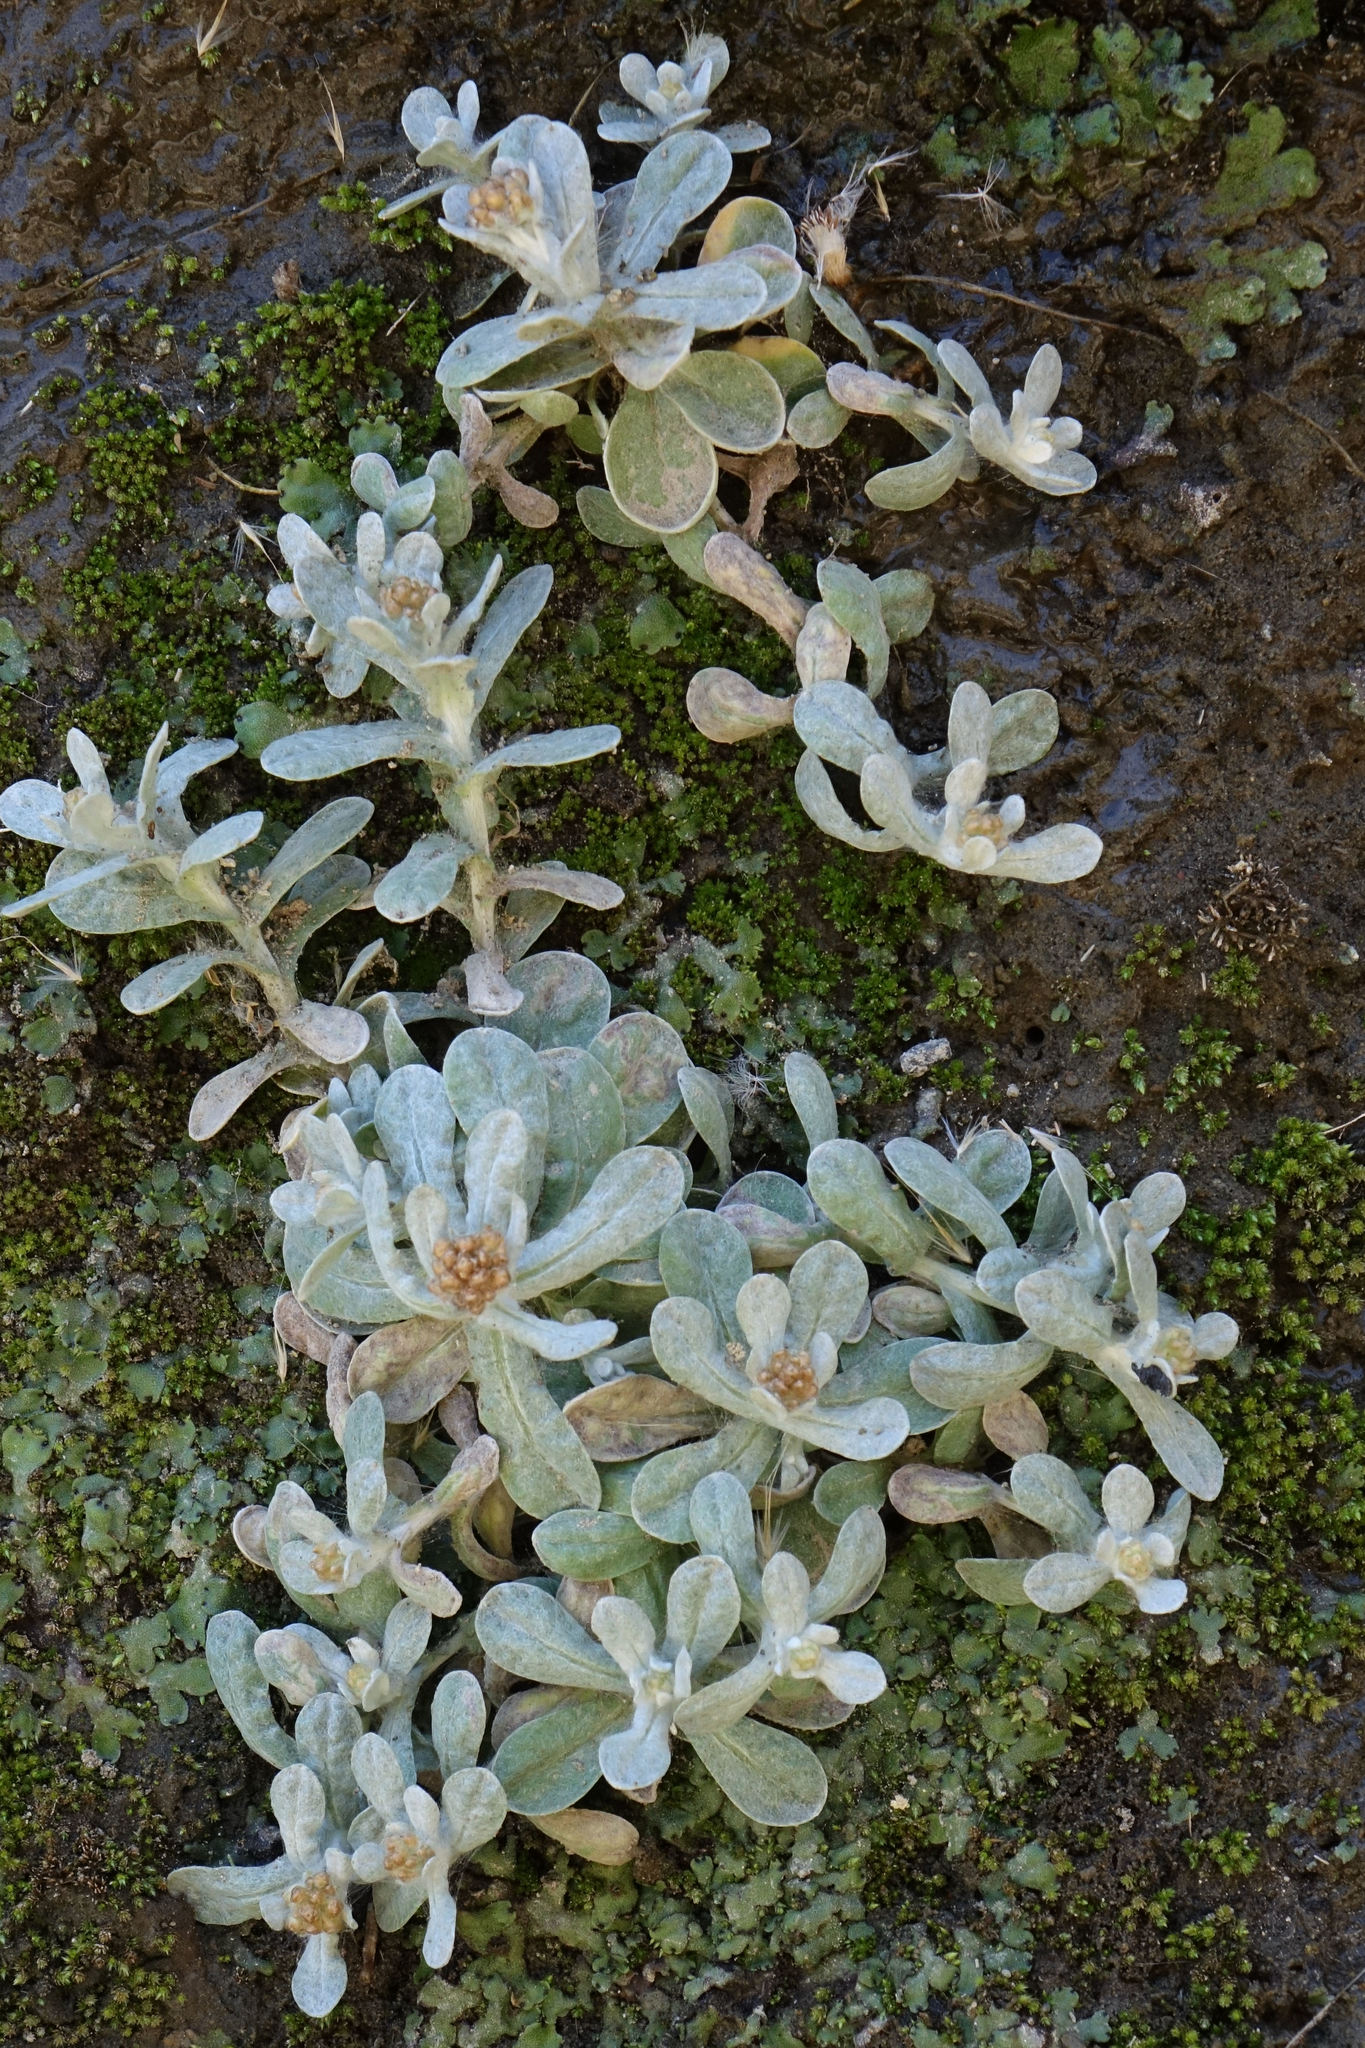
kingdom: Plantae
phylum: Tracheophyta
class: Magnoliopsida
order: Asterales
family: Asteraceae
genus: Helichrysum
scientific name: Helichrysum luteoalbum
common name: Daisy
